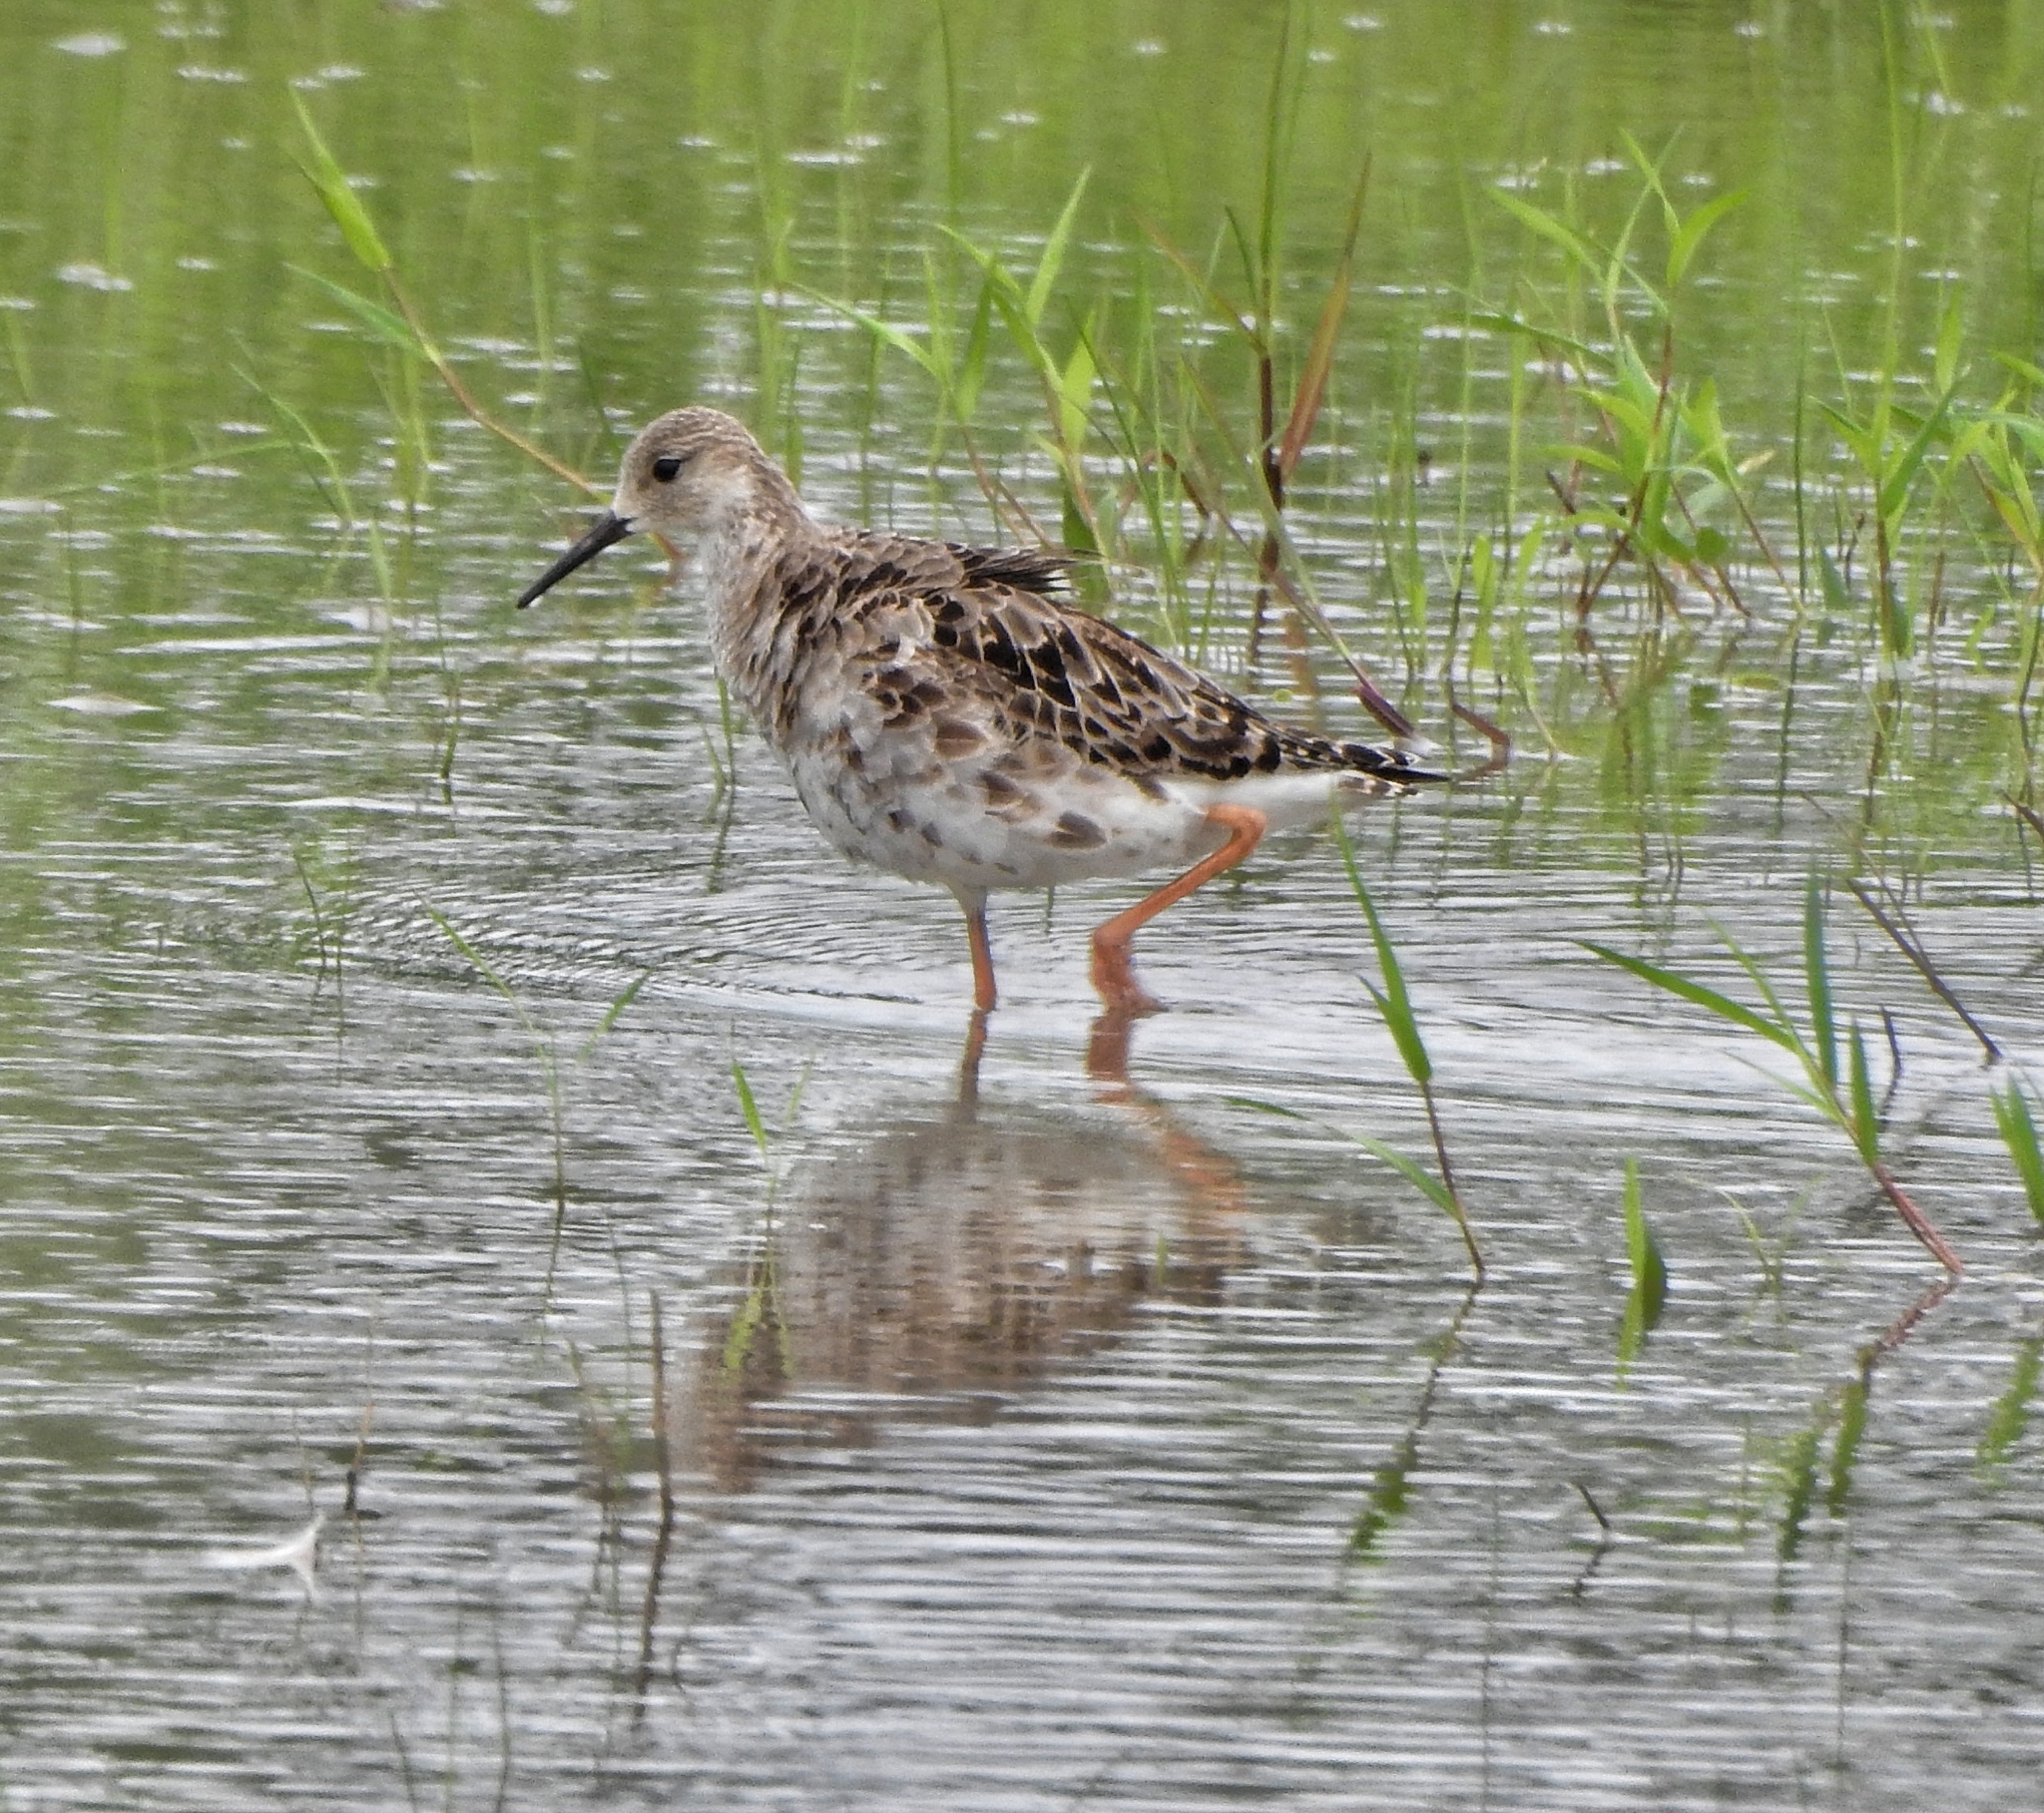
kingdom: Animalia
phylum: Chordata
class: Aves
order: Charadriiformes
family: Scolopacidae
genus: Calidris
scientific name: Calidris pugnax
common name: Ruff
